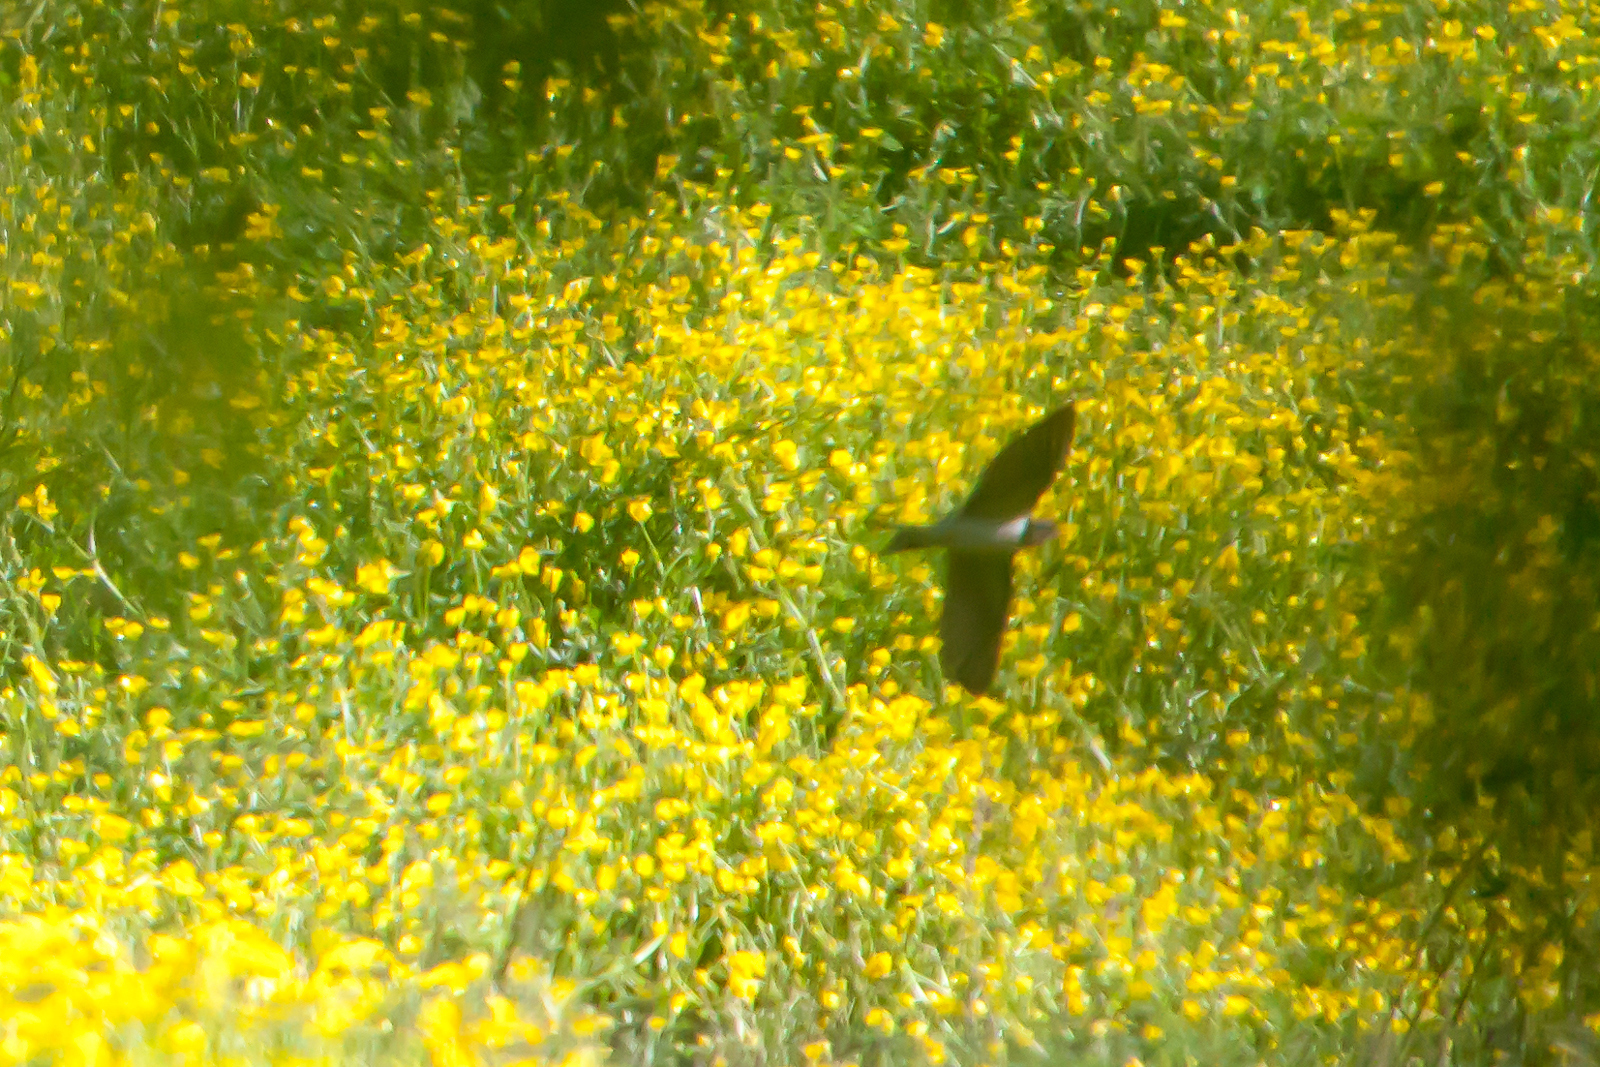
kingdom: Animalia
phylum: Chordata
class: Aves
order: Passeriformes
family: Hirundinidae
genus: Petrochelidon
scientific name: Petrochelidon pyrrhonota
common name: American cliff swallow
